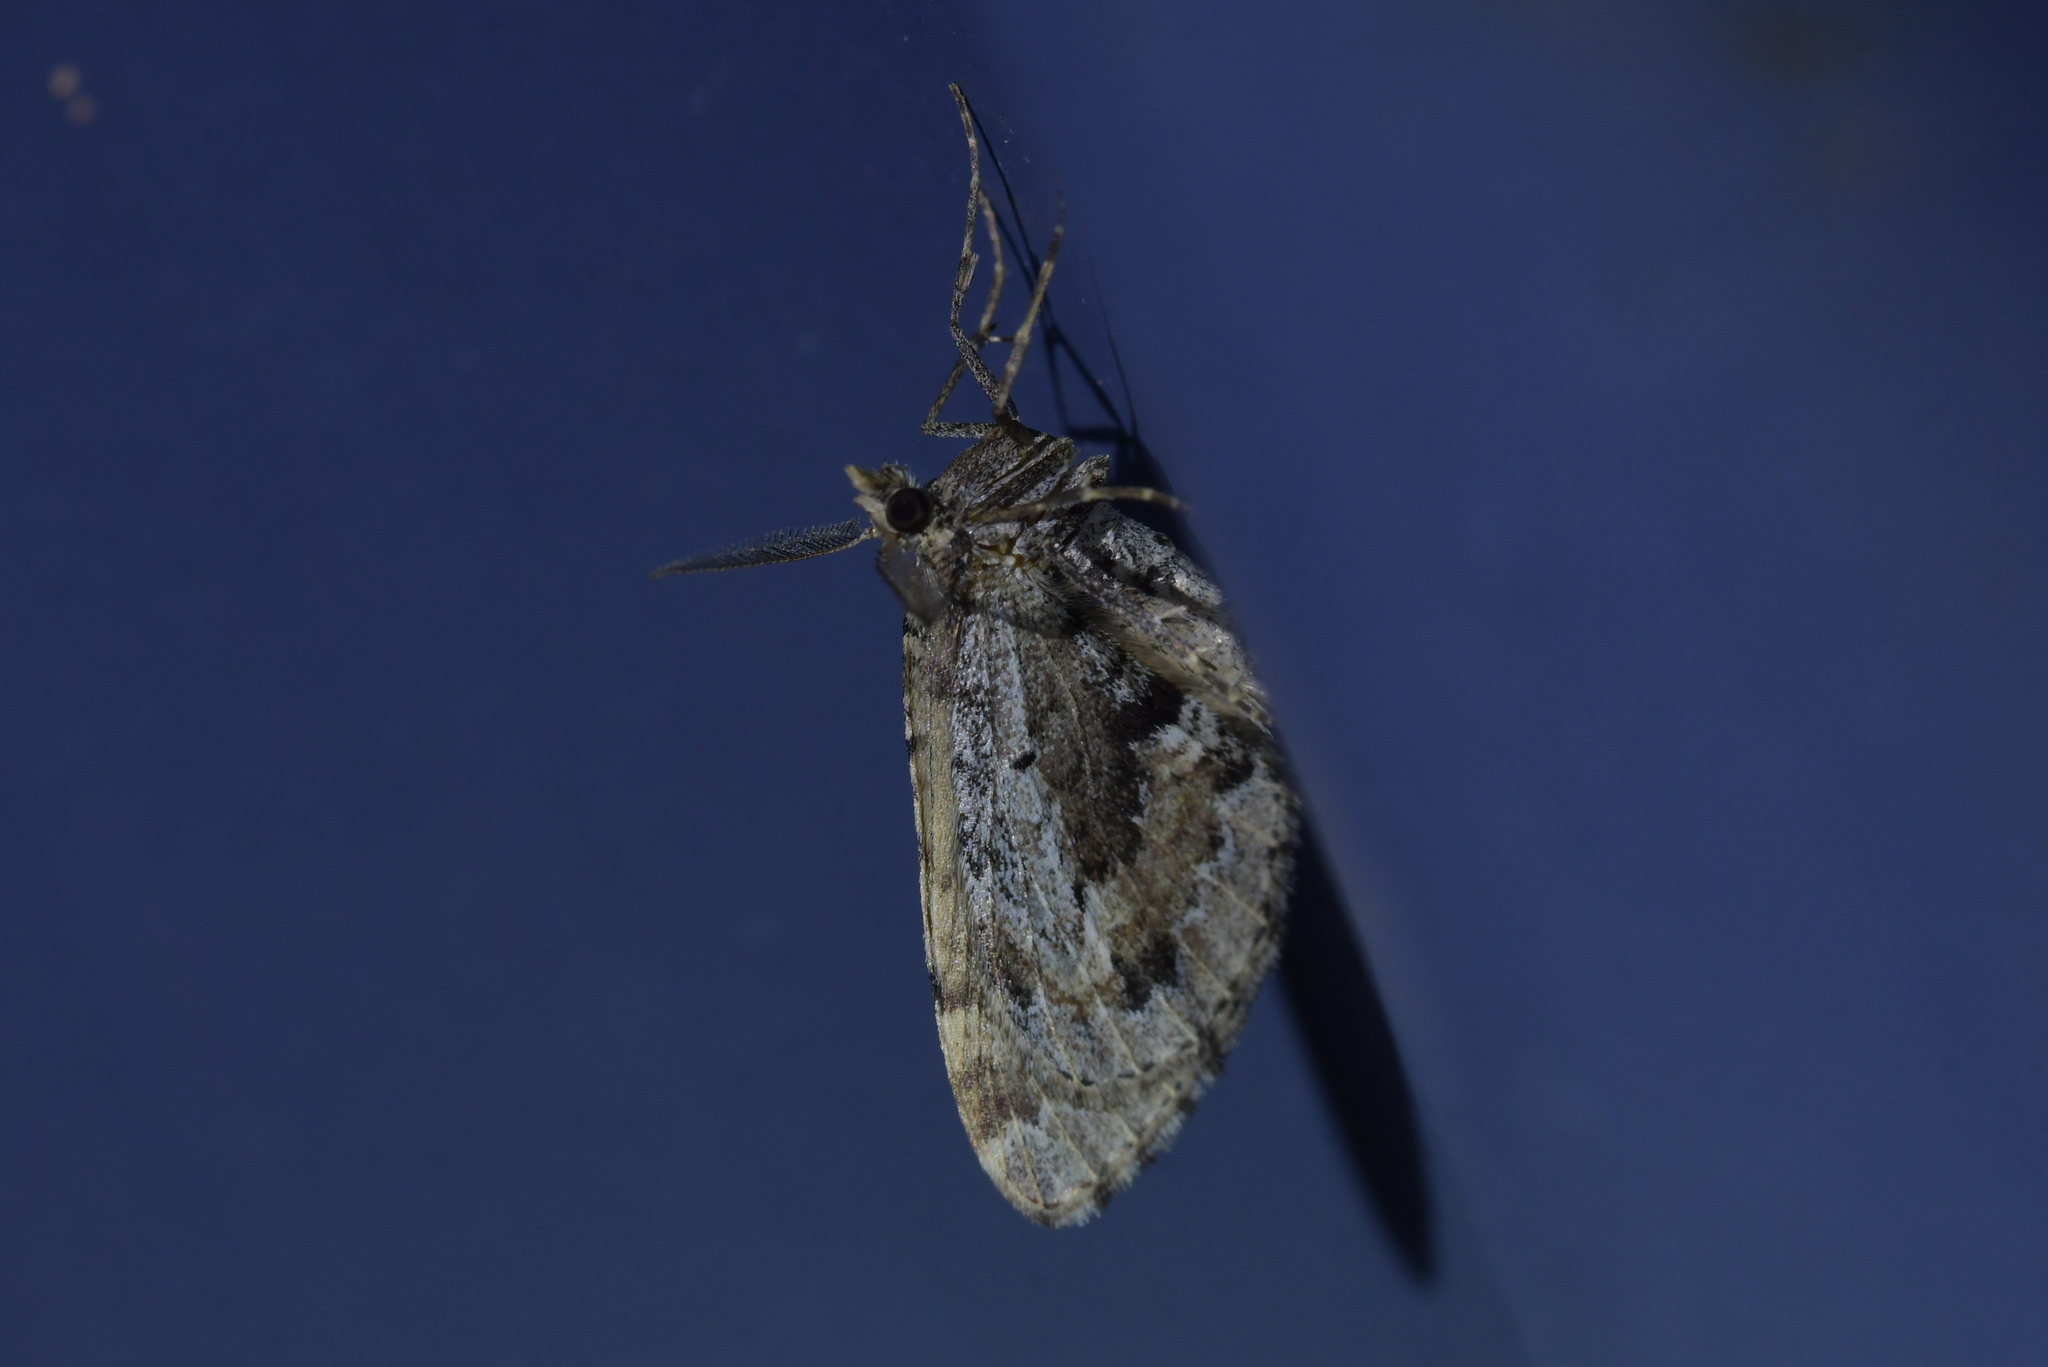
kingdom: Animalia
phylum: Arthropoda
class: Insecta
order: Lepidoptera
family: Geometridae
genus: Asaphodes
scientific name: Asaphodes aegrota
